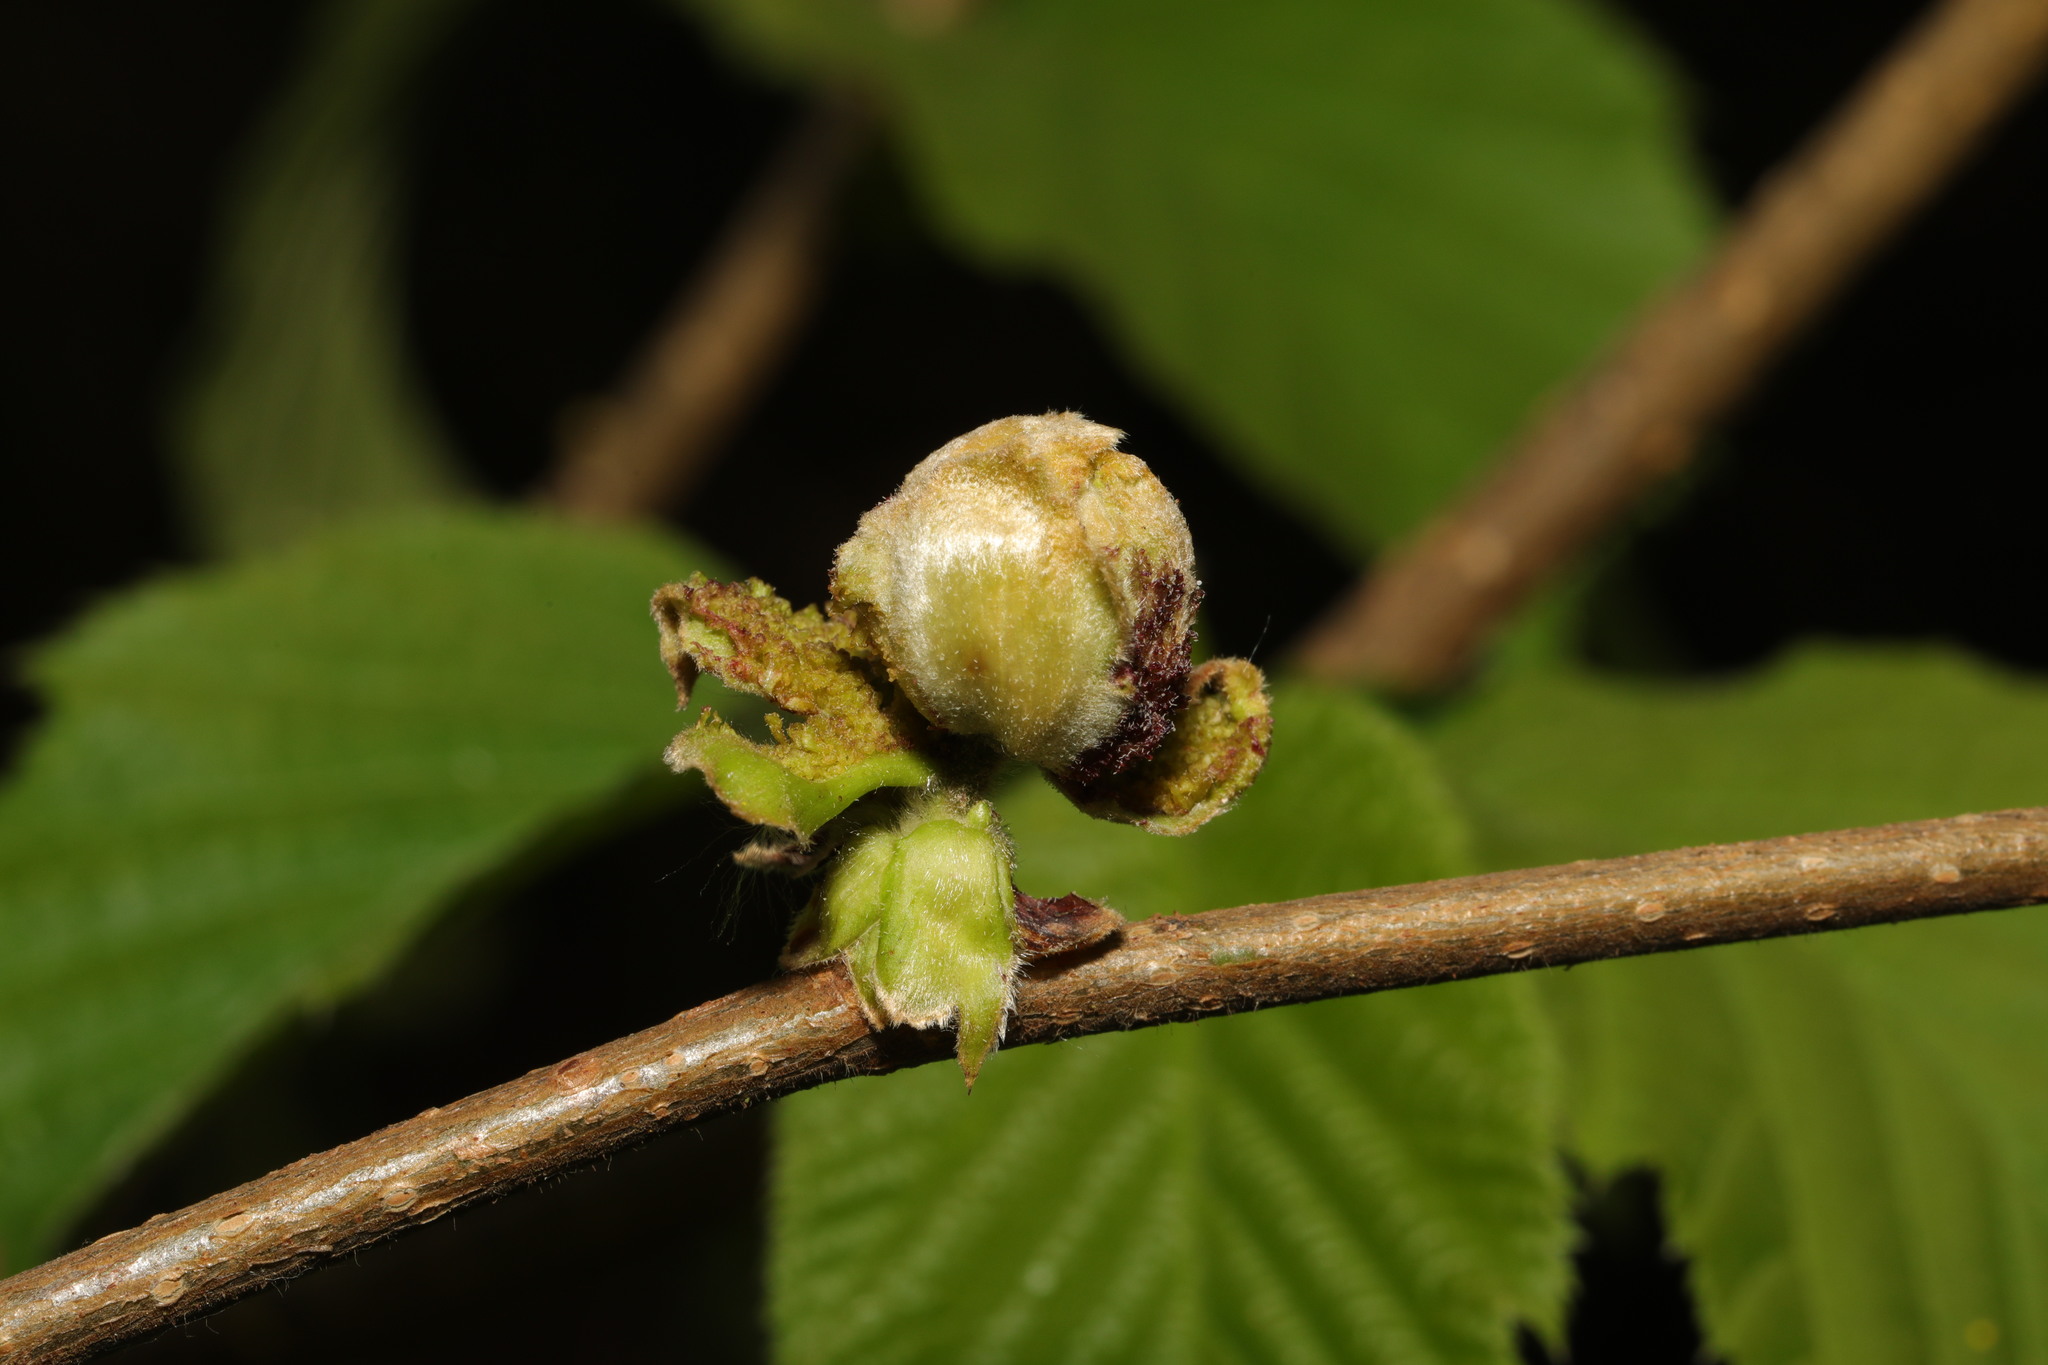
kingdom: Animalia
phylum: Arthropoda
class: Arachnida
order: Trombidiformes
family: Phytoptidae
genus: Phytoptus
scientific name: Phytoptus avellanae
